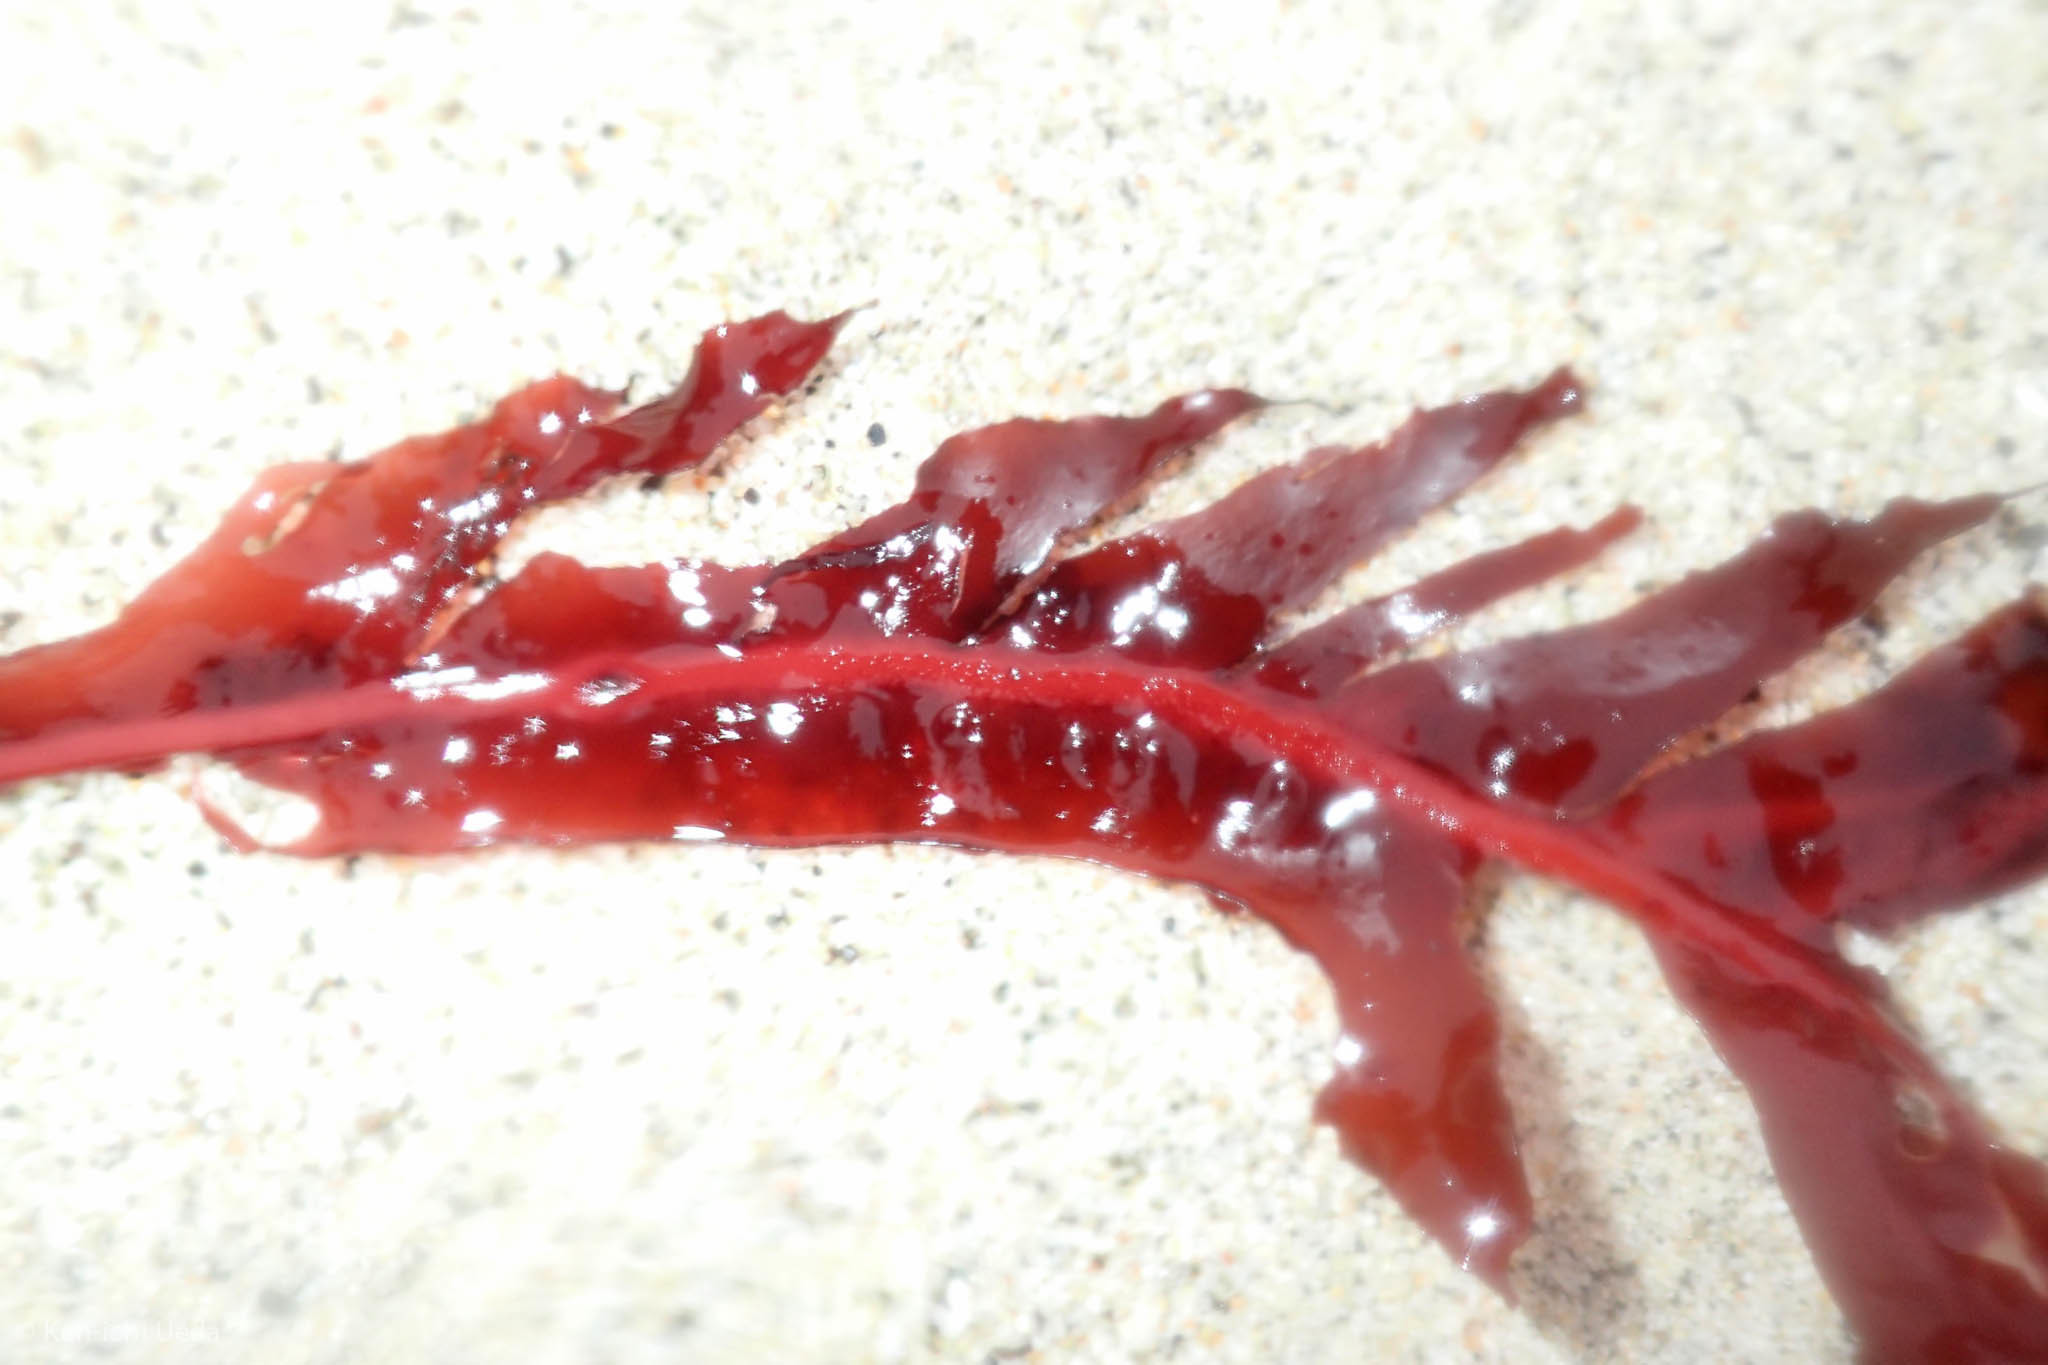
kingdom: Plantae
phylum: Rhodophyta
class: Florideophyceae
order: Gigartinales
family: Kallymeniaceae
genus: Erythrophyllum
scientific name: Erythrophyllum delesserioides
